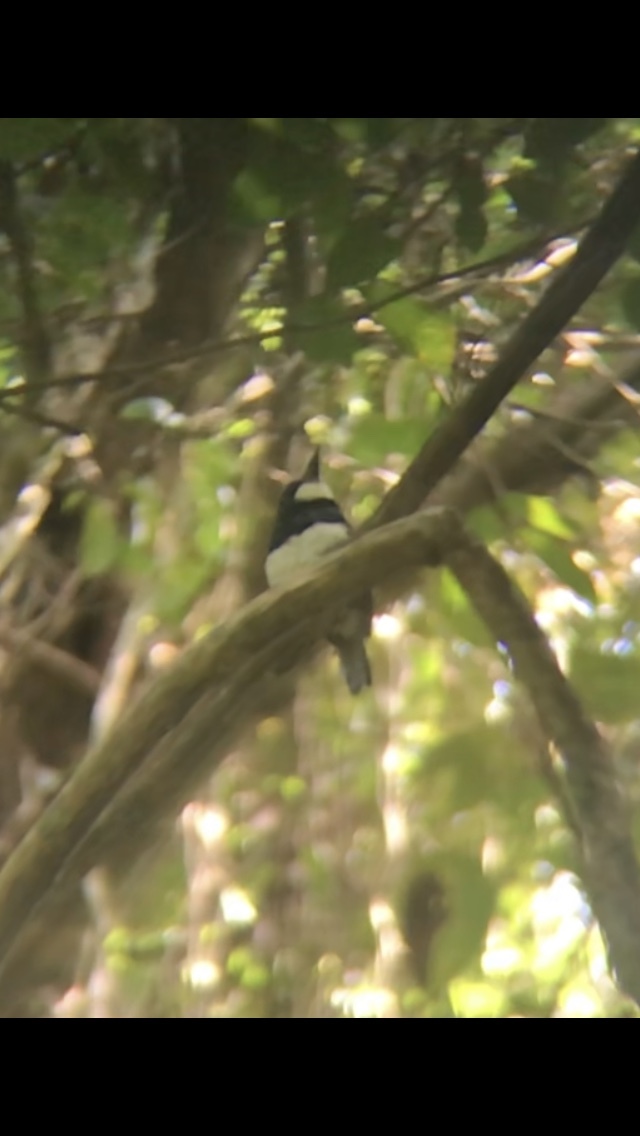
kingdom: Animalia
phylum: Chordata
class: Aves
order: Piciformes
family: Bucconidae
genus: Notharchus
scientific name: Notharchus pectoralis
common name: Black-breasted puffbird
